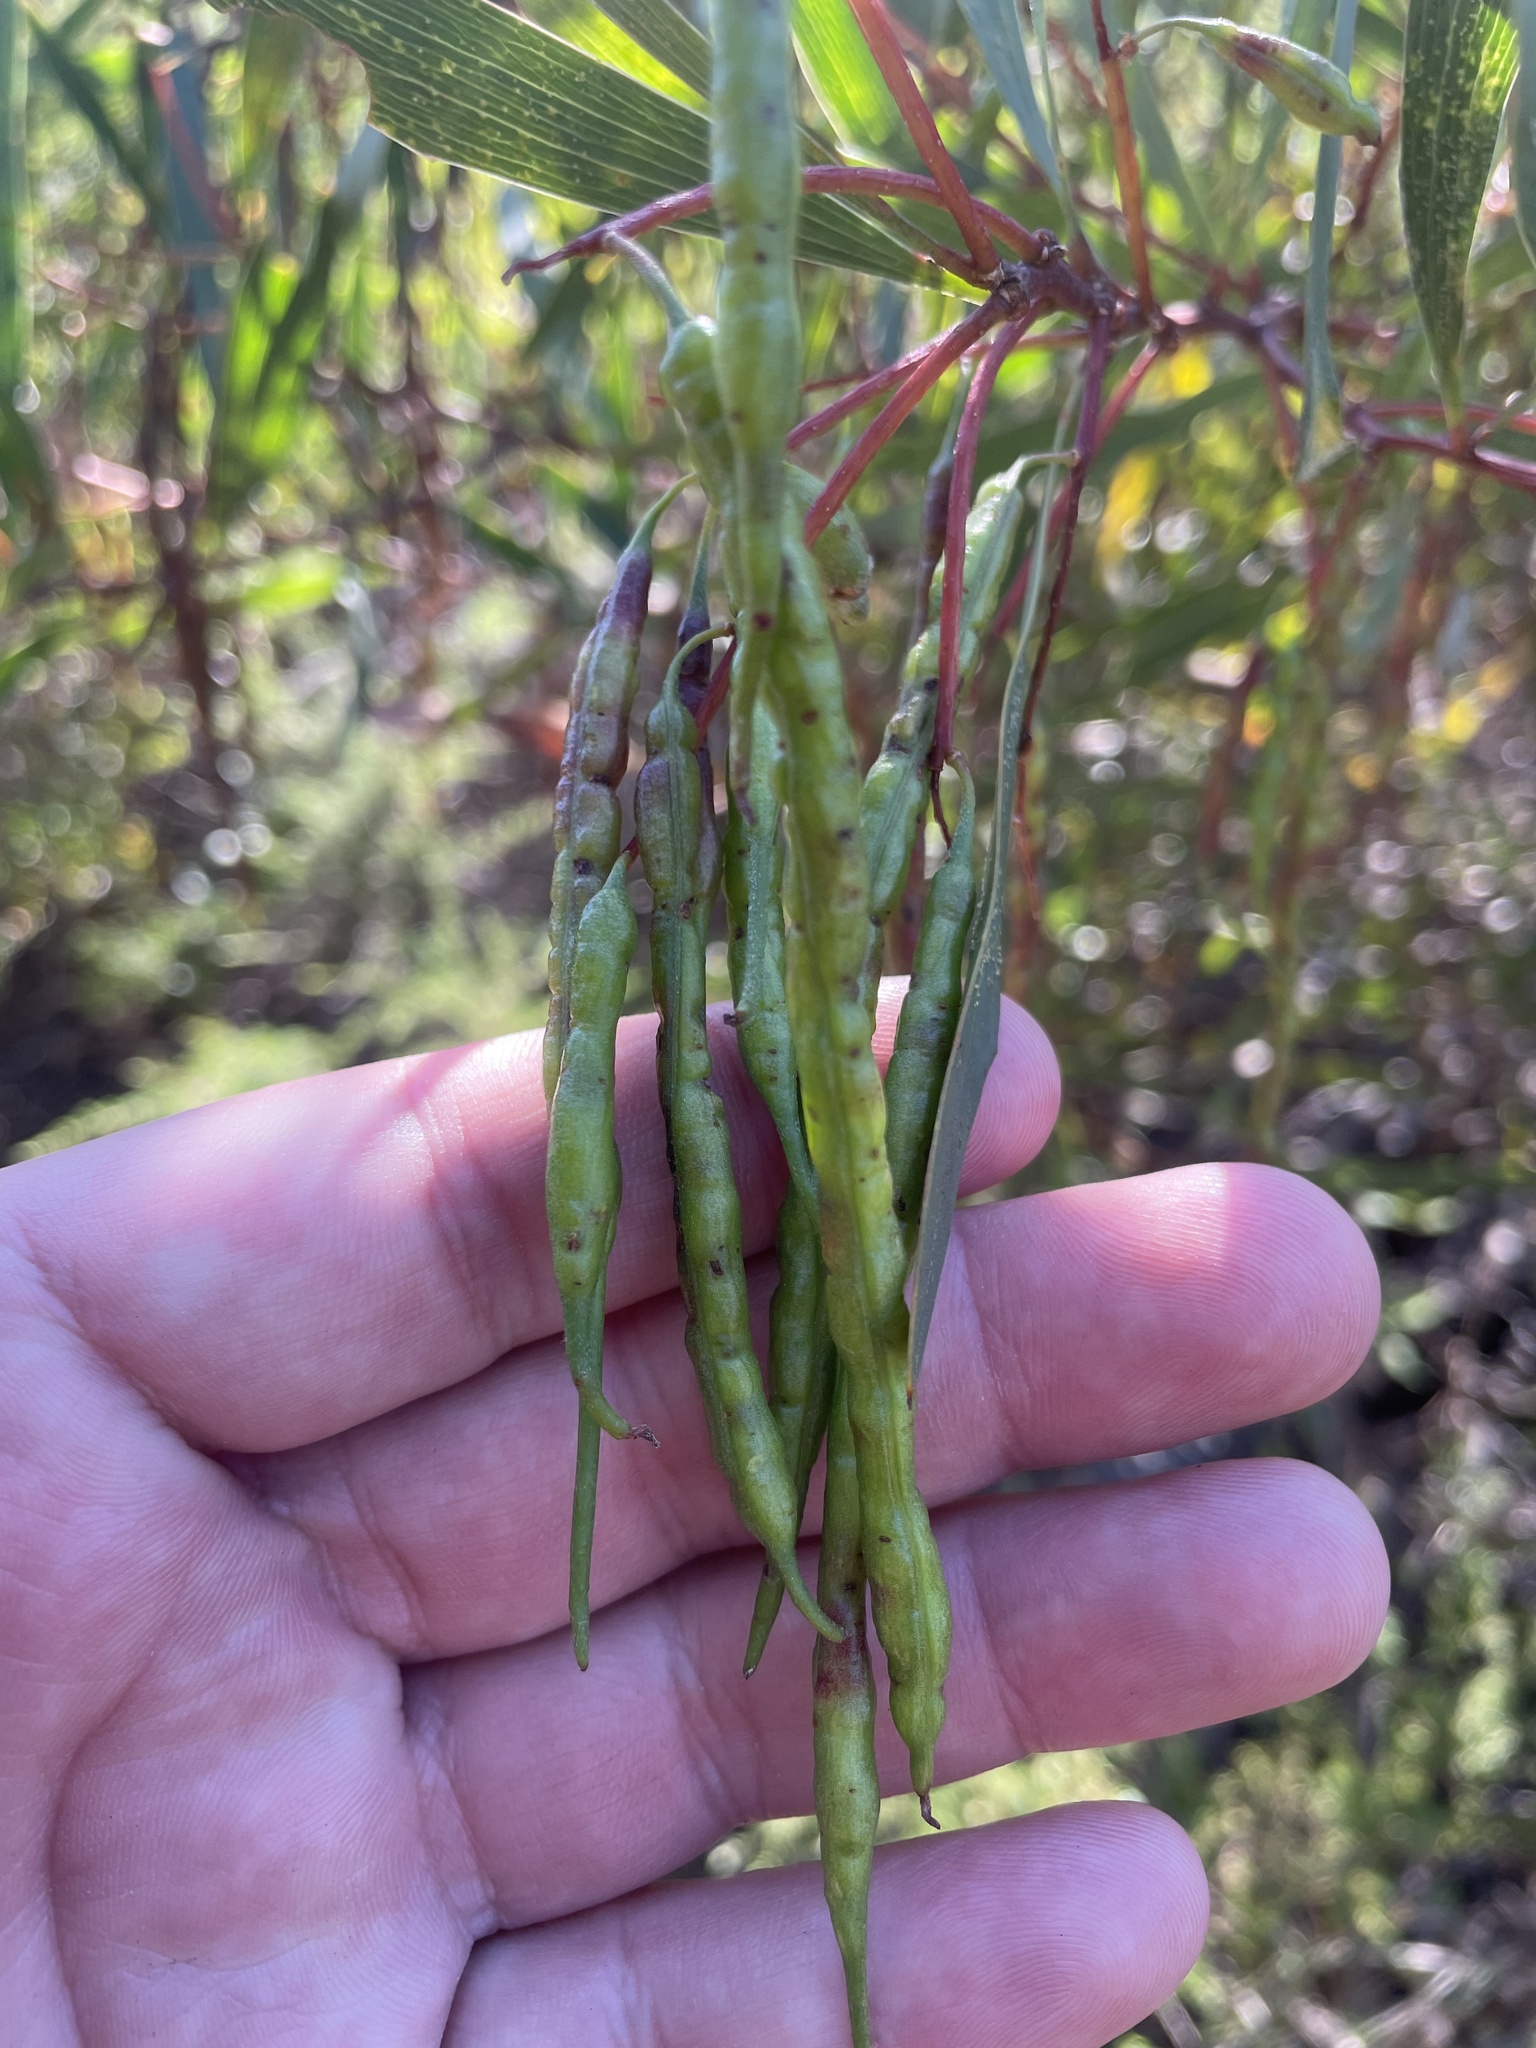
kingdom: Plantae
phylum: Tracheophyta
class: Magnoliopsida
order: Fabales
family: Fabaceae
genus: Acacia
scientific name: Acacia longifolia
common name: Sydney golden wattle
